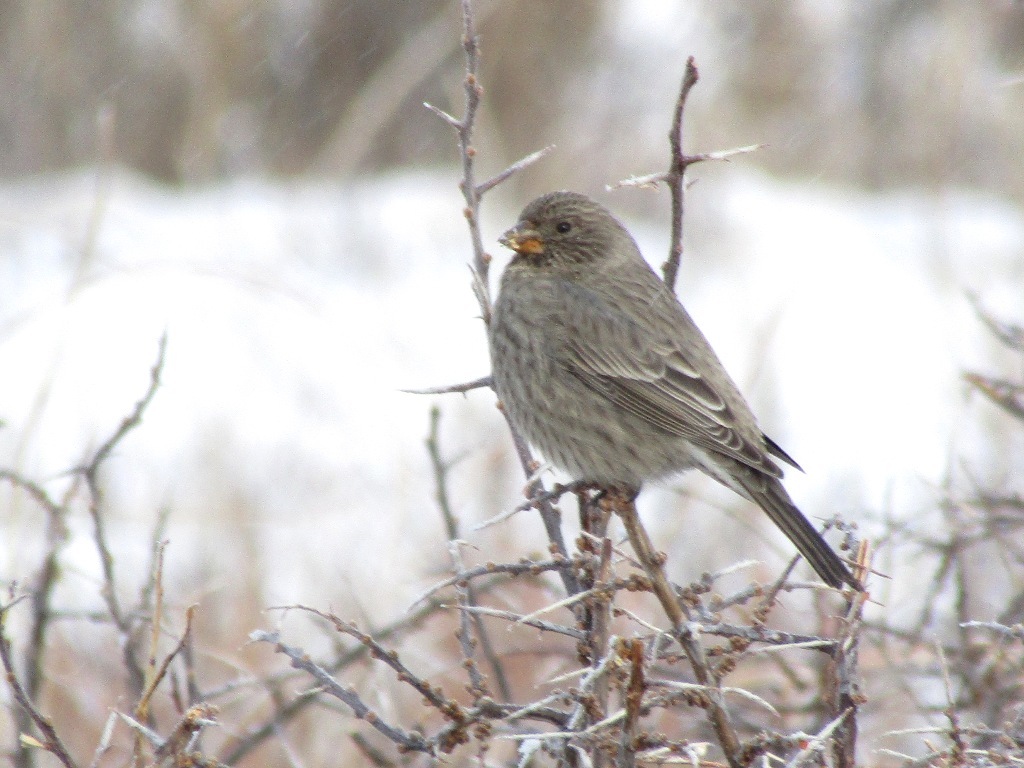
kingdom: Animalia
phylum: Chordata
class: Aves
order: Passeriformes
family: Fringillidae
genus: Carpodacus
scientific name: Carpodacus rubicilla
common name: Great rosefinch
